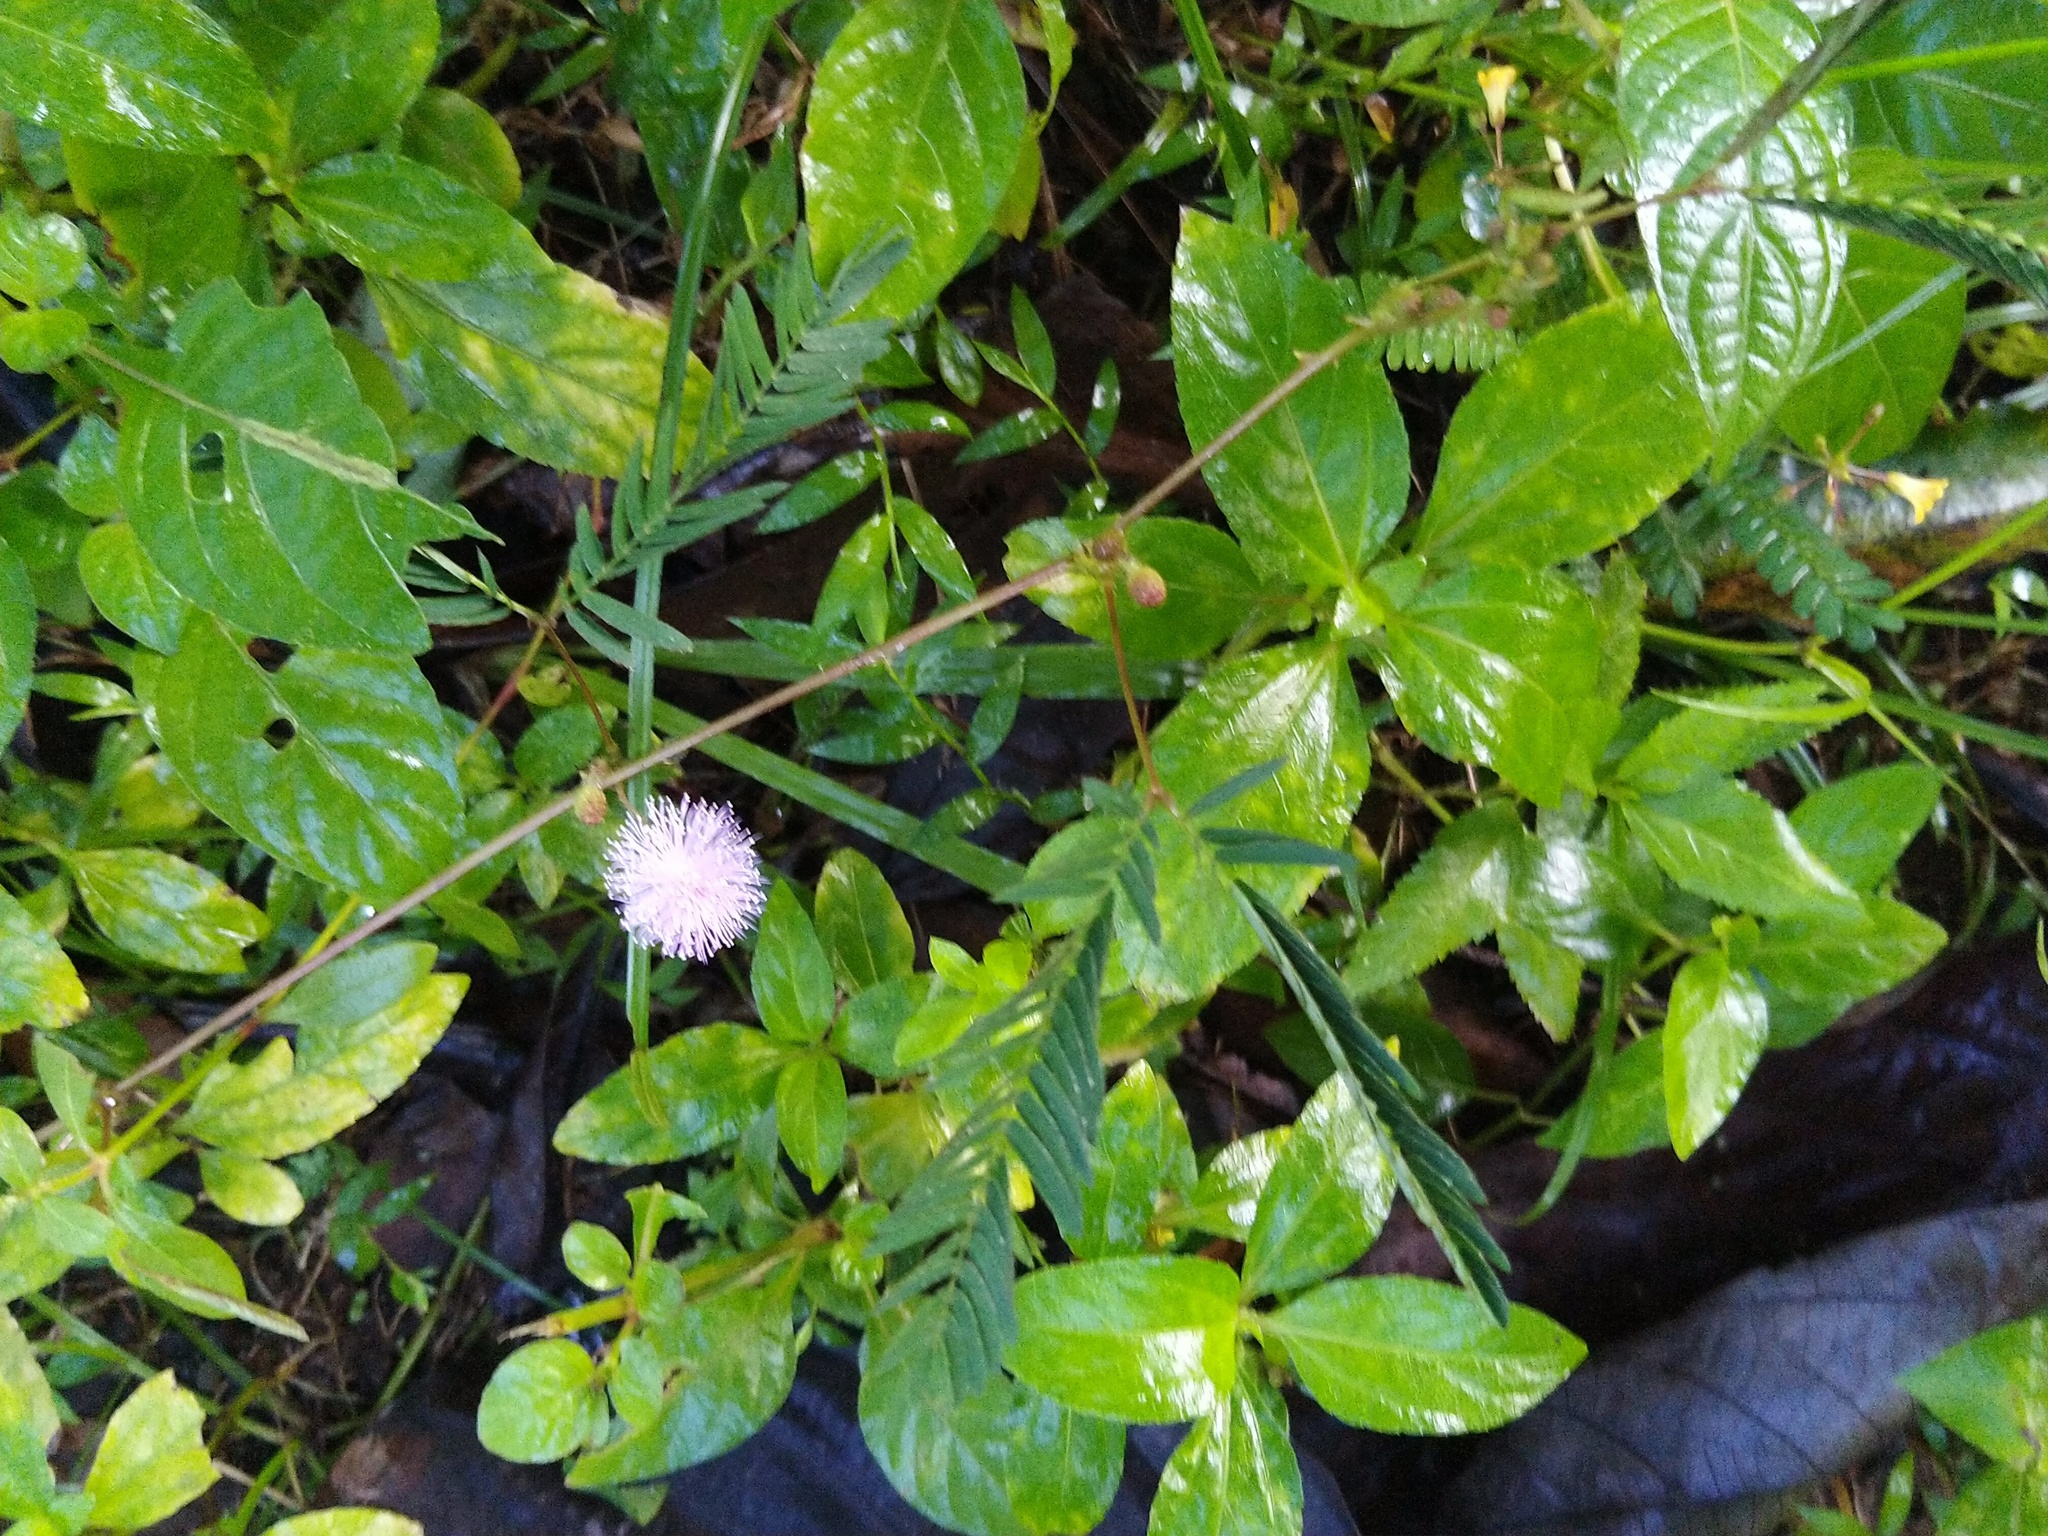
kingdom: Plantae
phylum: Tracheophyta
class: Magnoliopsida
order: Fabales
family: Fabaceae
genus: Mimosa
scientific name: Mimosa pudica
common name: Sensitive plant
